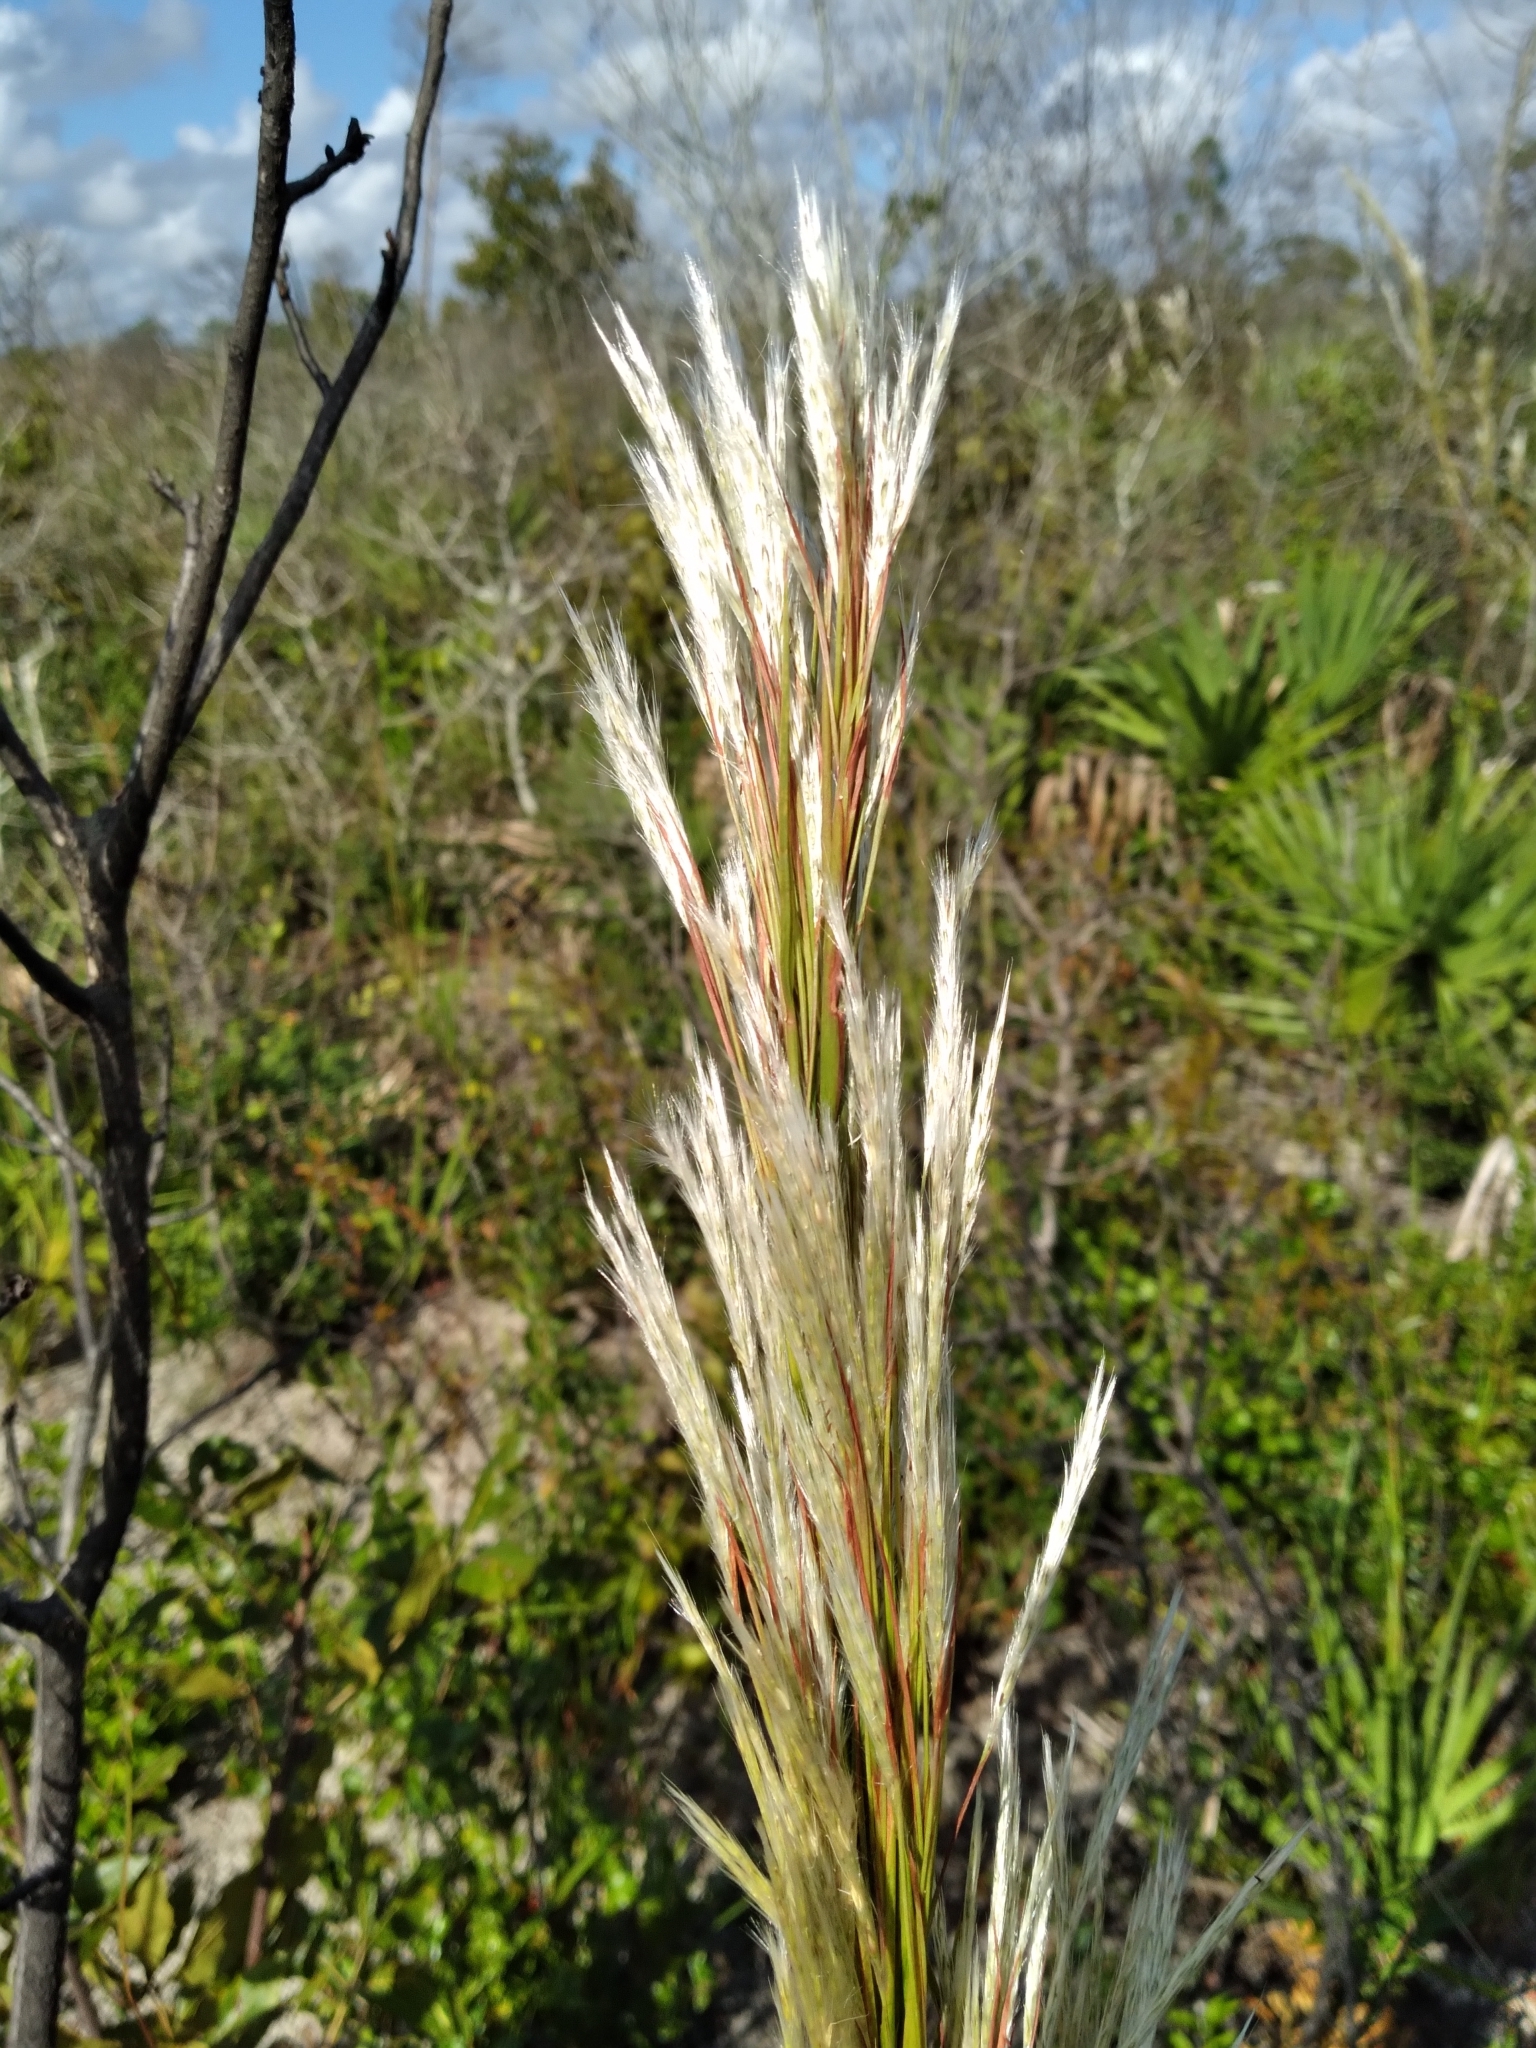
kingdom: Plantae
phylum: Tracheophyta
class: Liliopsida
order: Poales
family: Poaceae
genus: Andropogon
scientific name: Andropogon floridanus
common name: Florida bluestem
